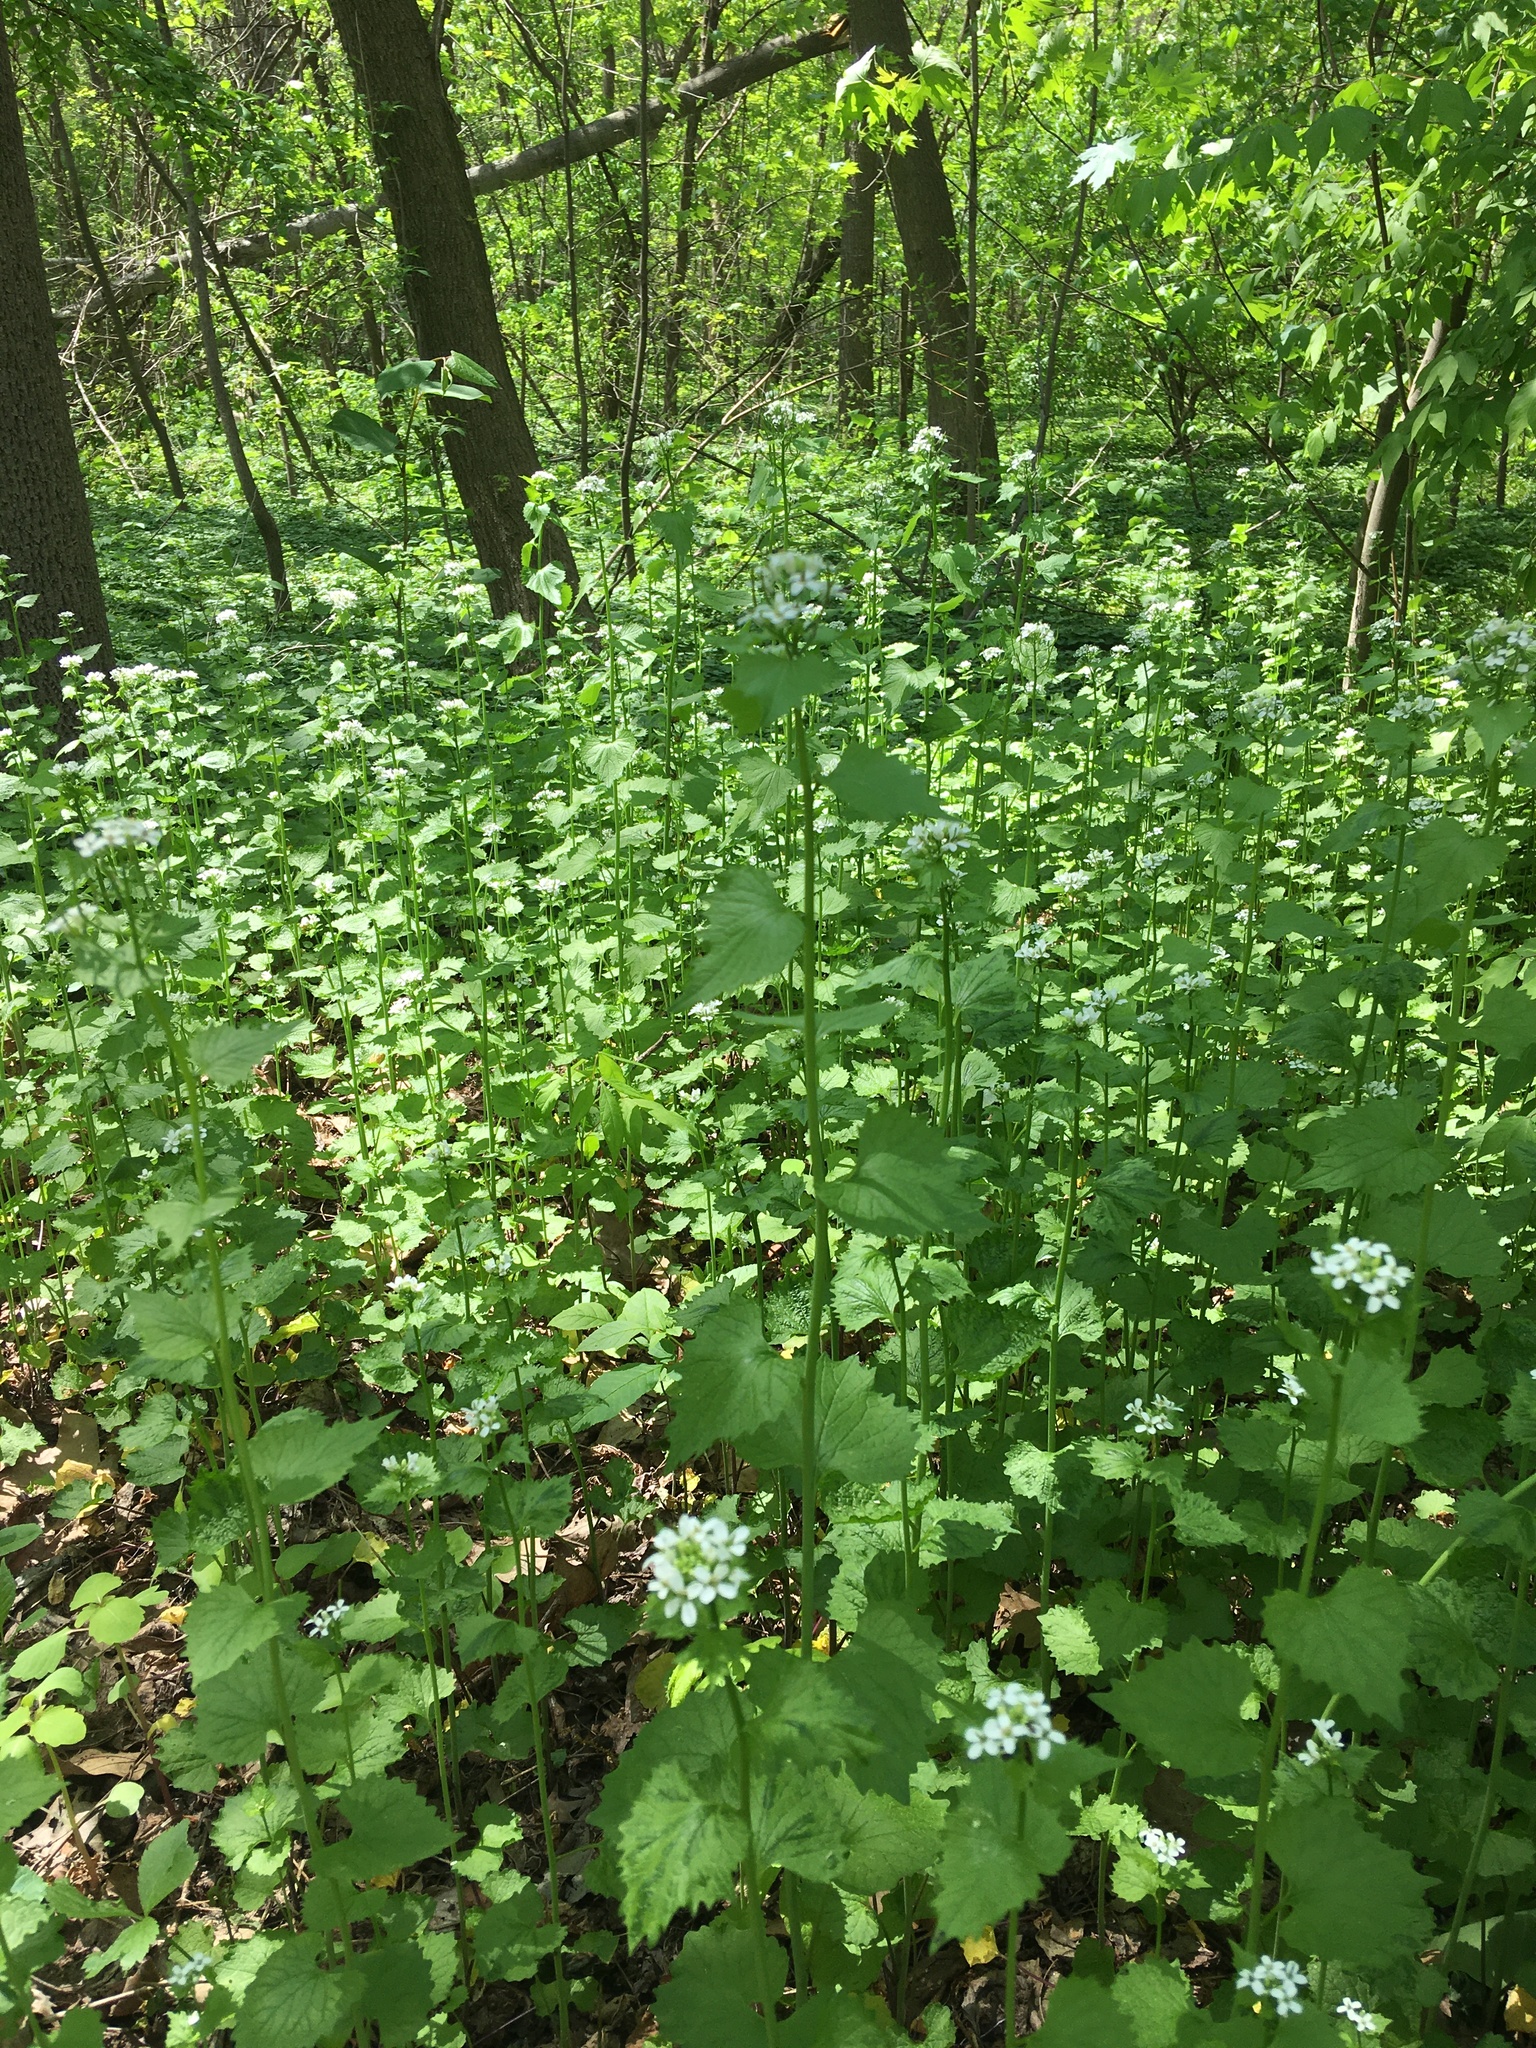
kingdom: Plantae
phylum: Tracheophyta
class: Magnoliopsida
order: Brassicales
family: Brassicaceae
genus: Alliaria
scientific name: Alliaria petiolata
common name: Garlic mustard
